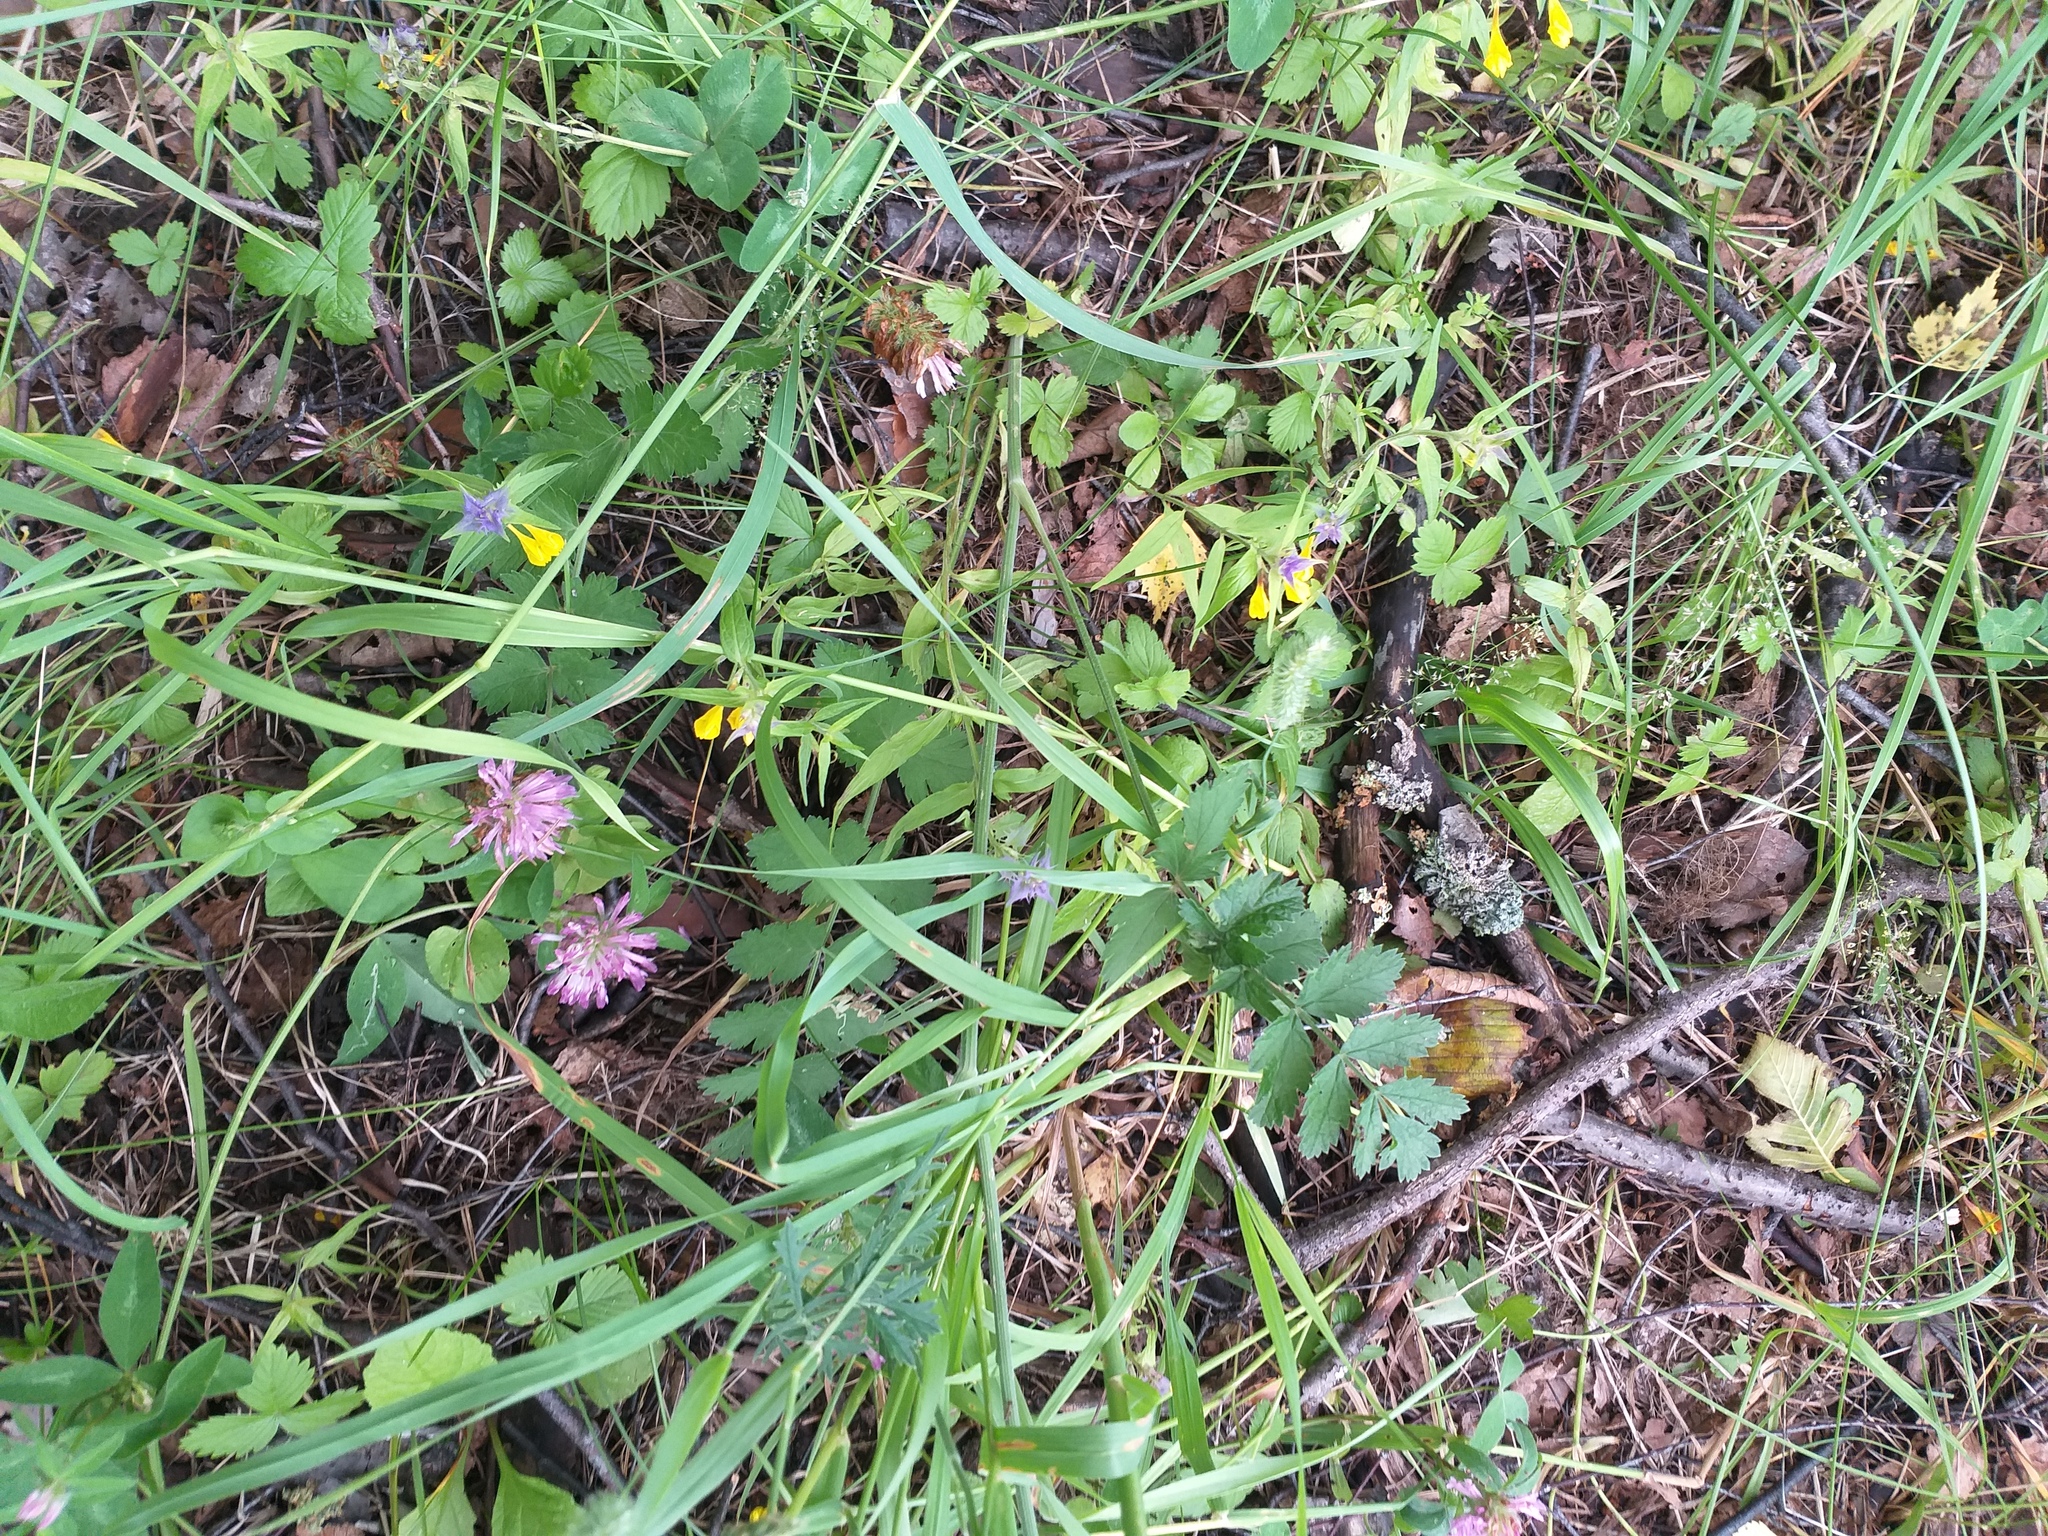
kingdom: Plantae
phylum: Tracheophyta
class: Magnoliopsida
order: Apiales
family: Apiaceae
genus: Pimpinella
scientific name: Pimpinella saxifraga
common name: Burnet-saxifrage
